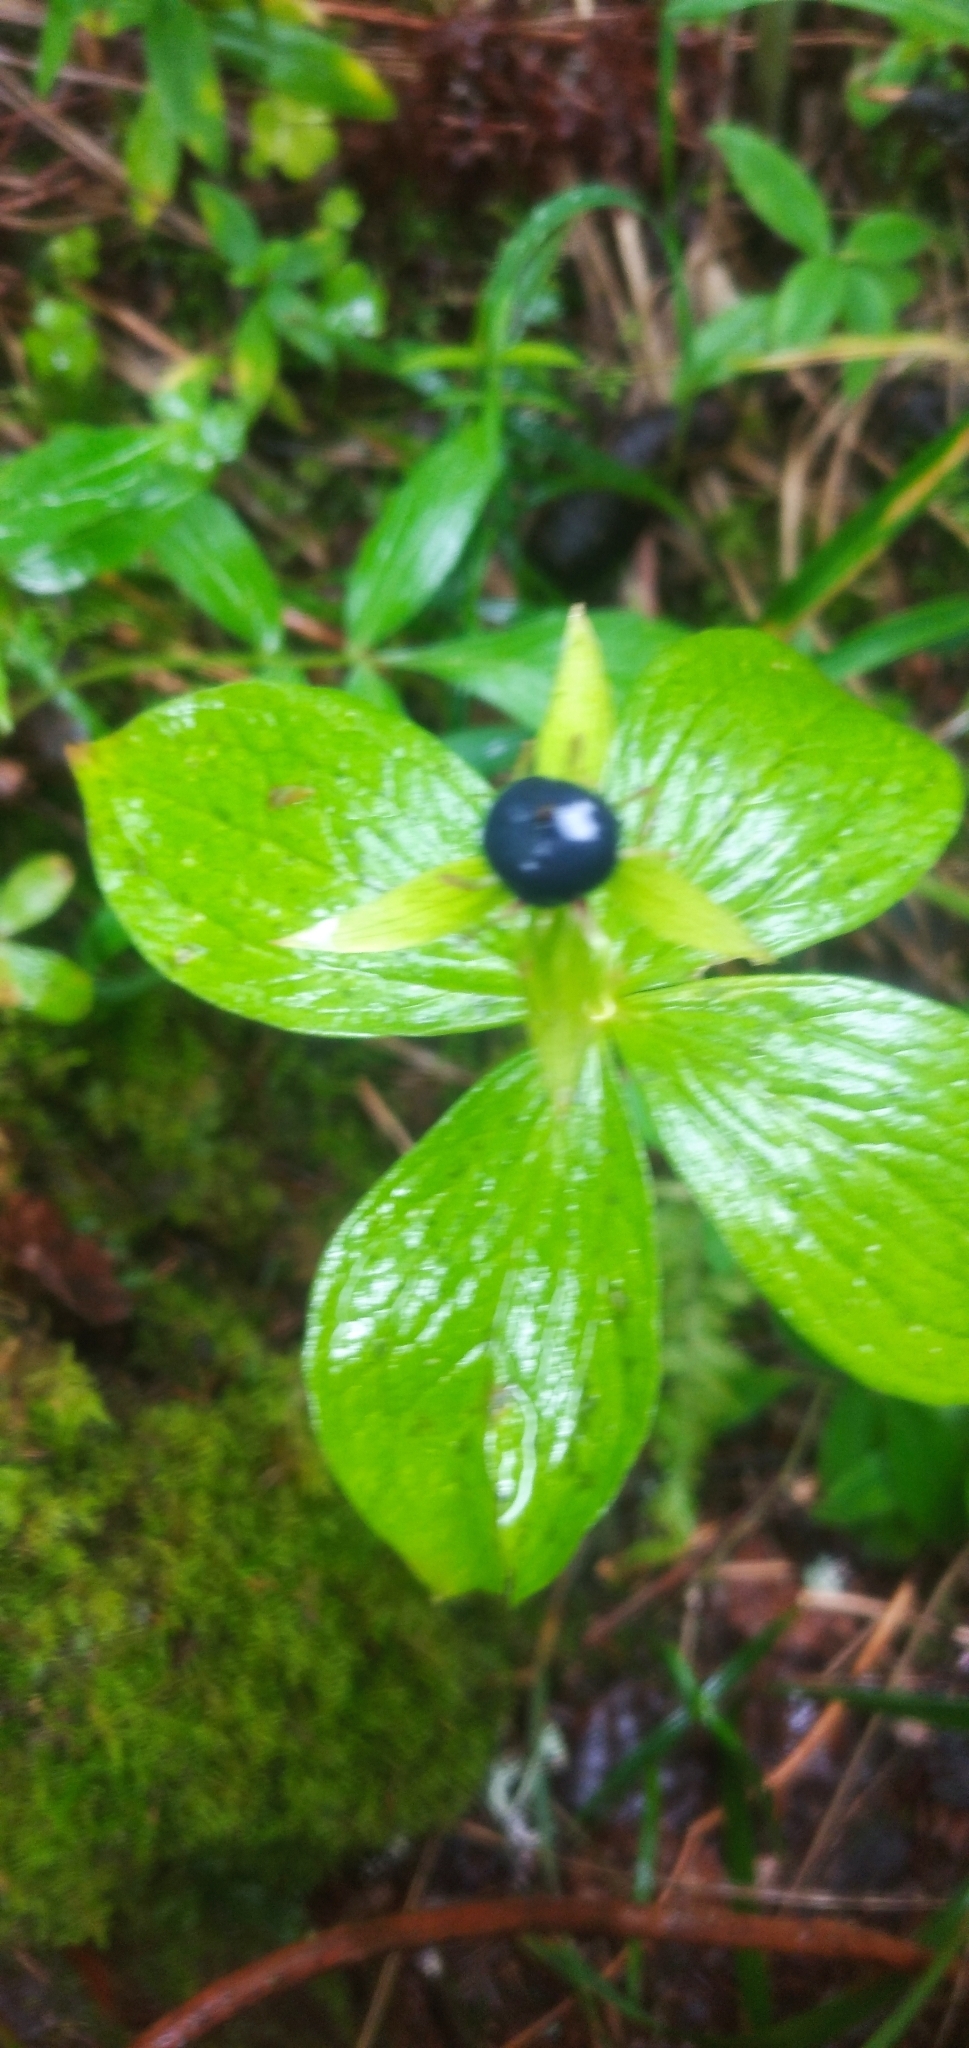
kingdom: Plantae
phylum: Tracheophyta
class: Liliopsida
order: Liliales
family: Melanthiaceae
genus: Paris
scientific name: Paris quadrifolia
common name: Herb-paris
